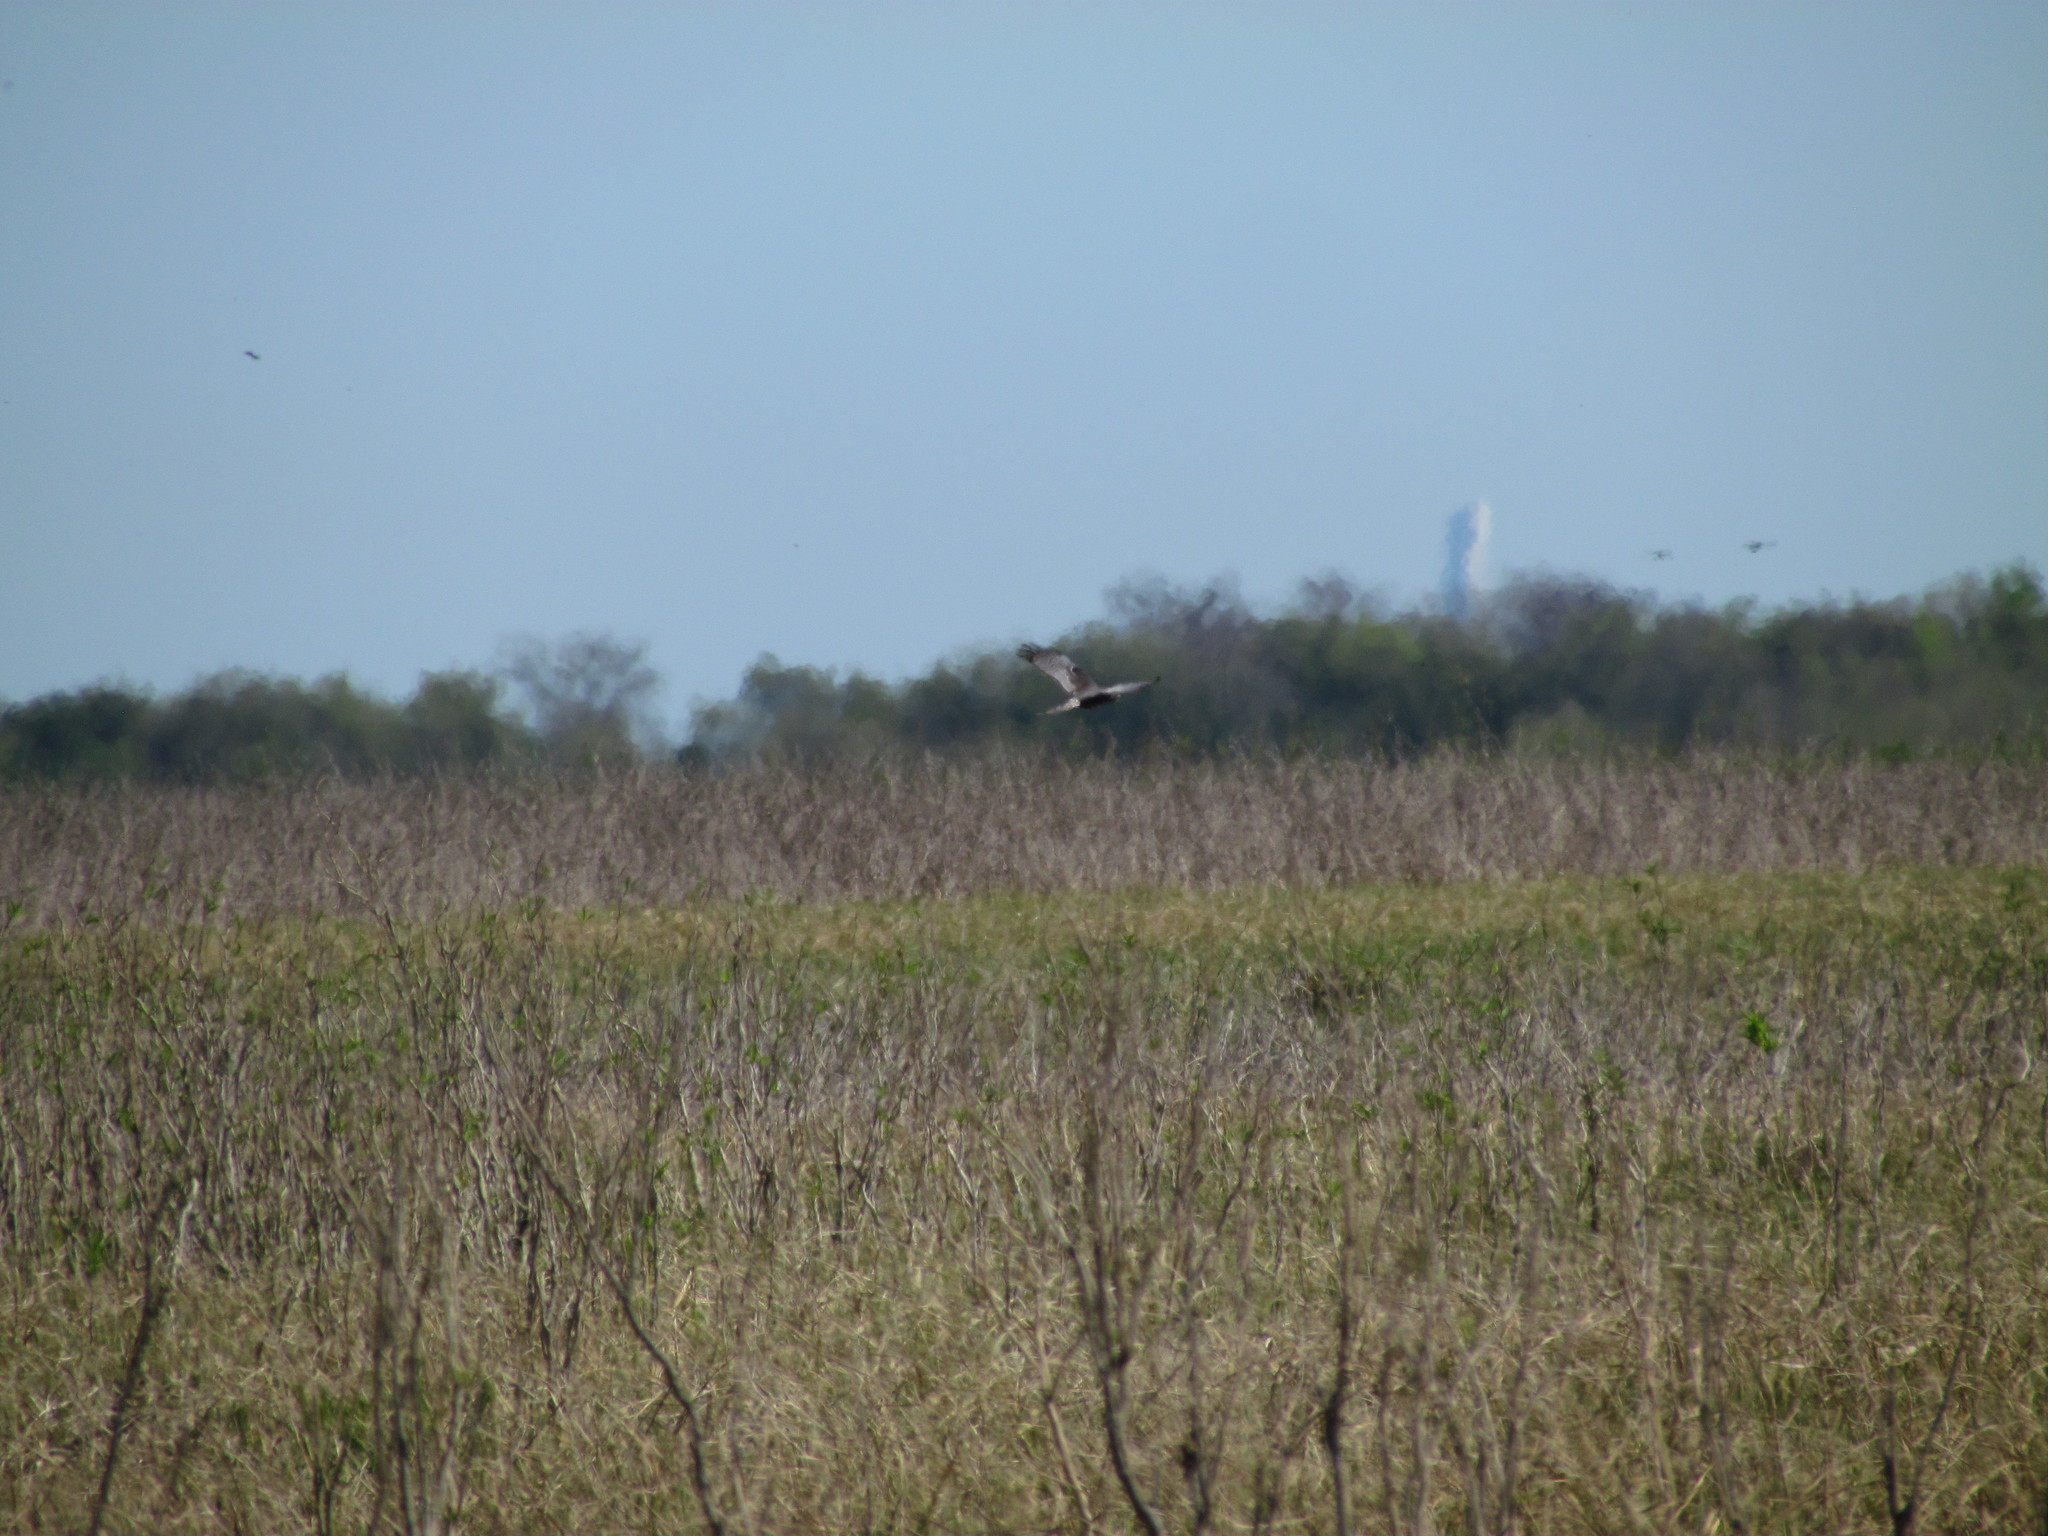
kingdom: Animalia
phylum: Chordata
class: Aves
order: Accipitriformes
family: Accipitridae
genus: Circus
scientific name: Circus buffoni
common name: Long-winged harrier
